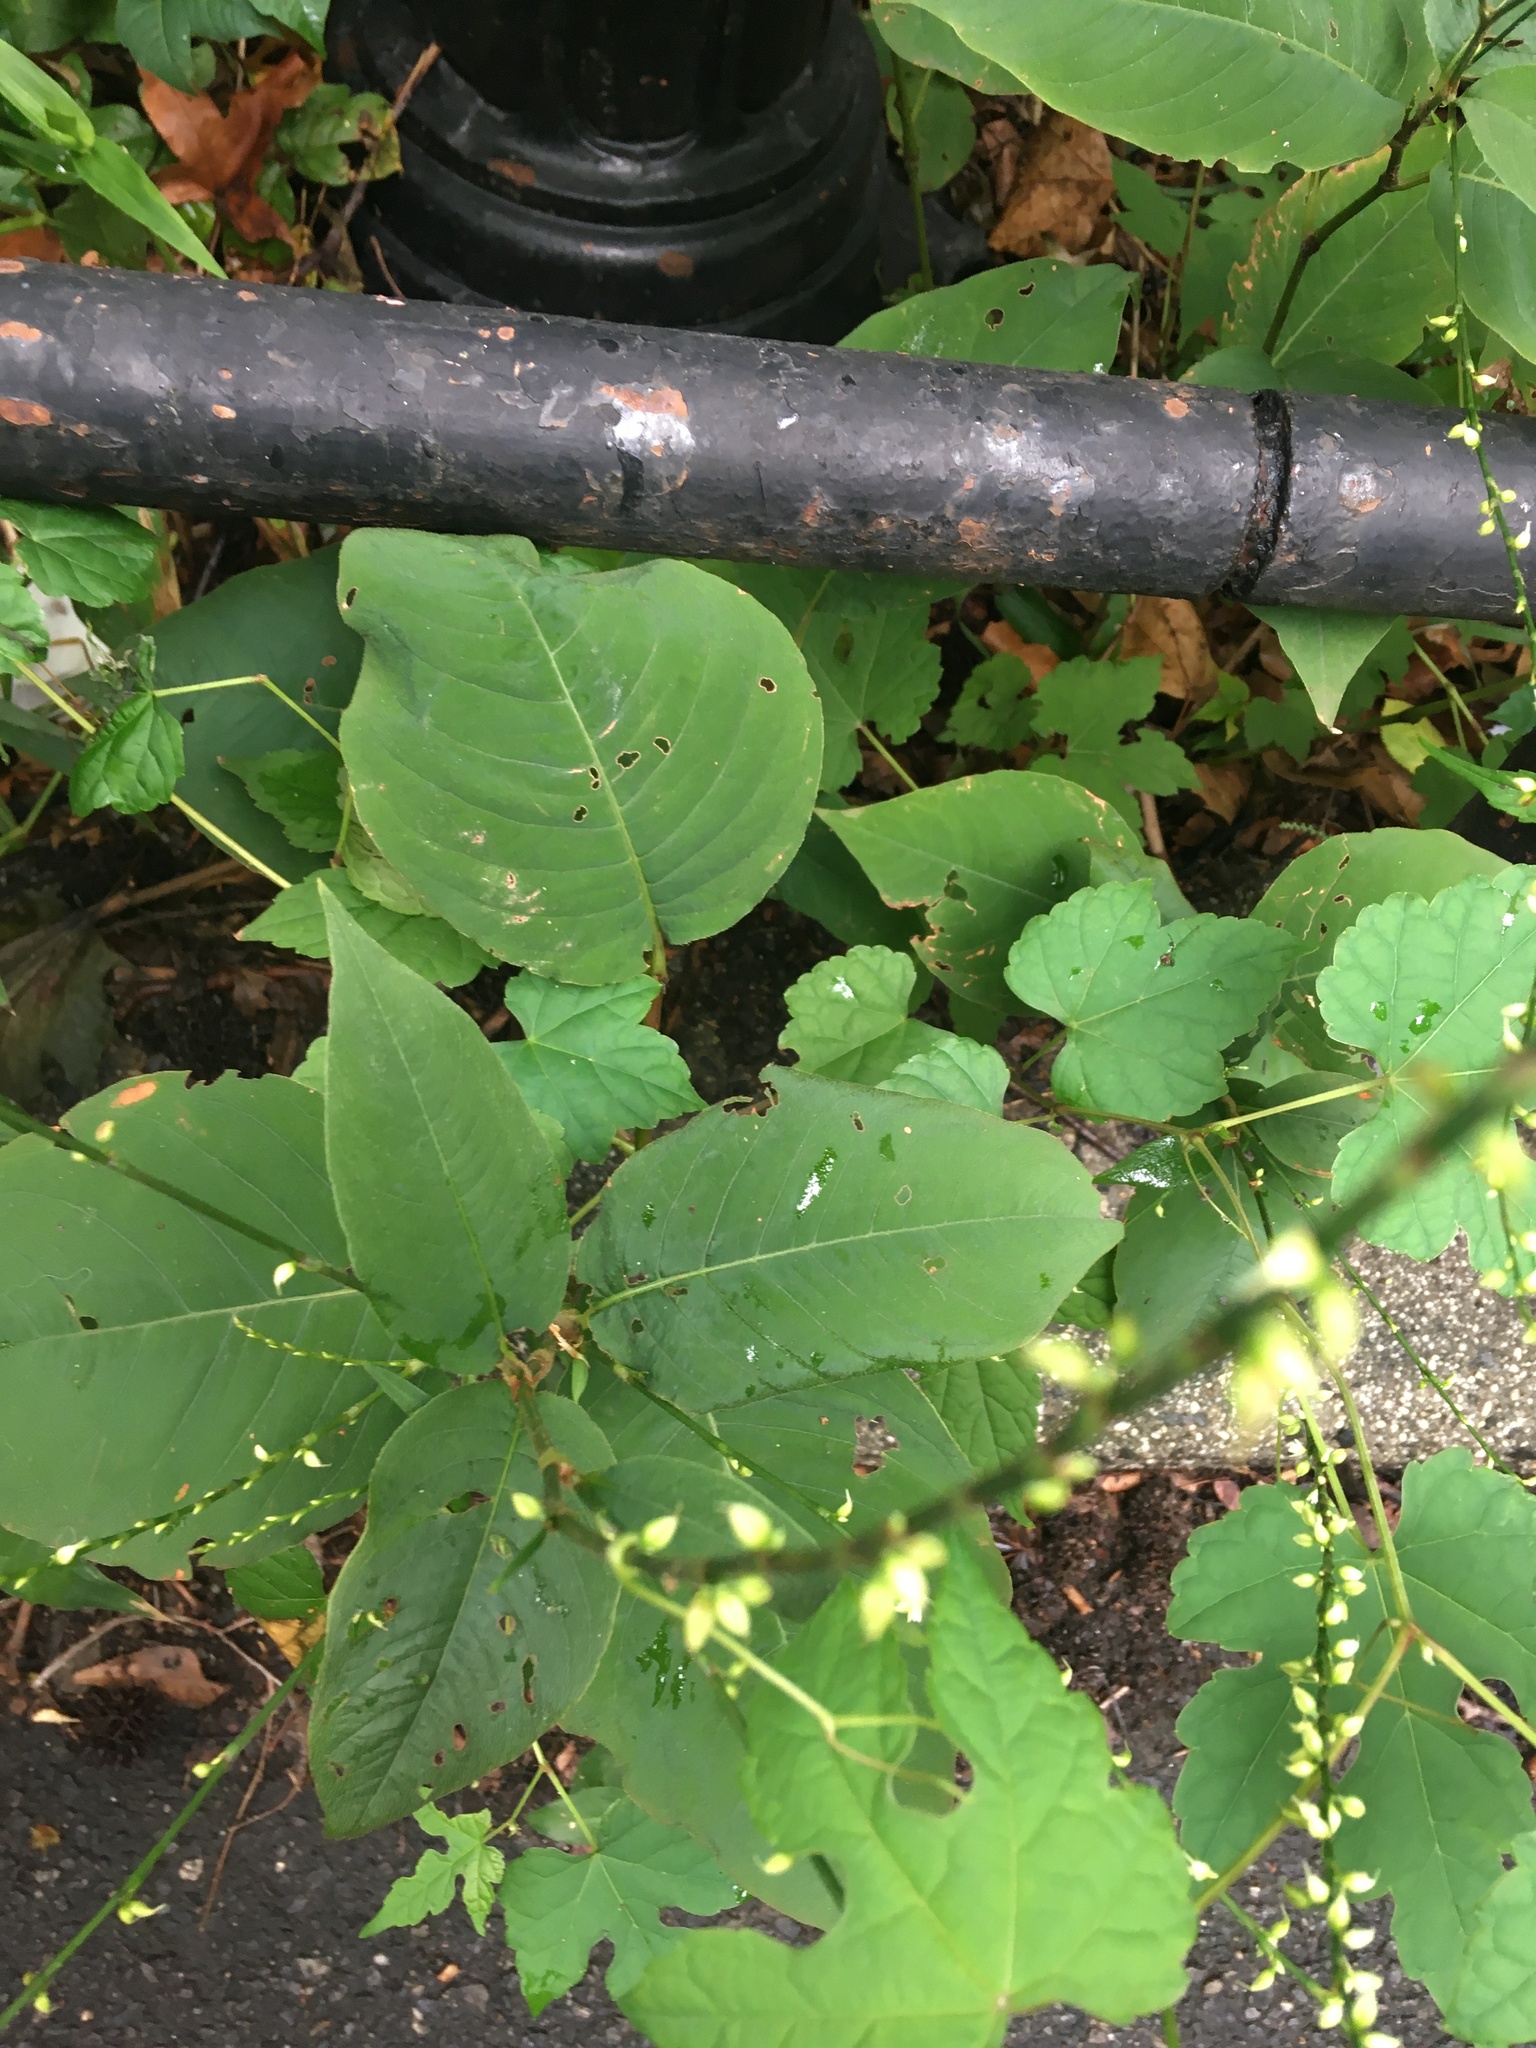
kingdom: Plantae
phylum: Tracheophyta
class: Magnoliopsida
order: Caryophyllales
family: Polygonaceae
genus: Persicaria
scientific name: Persicaria virginiana
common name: Jumpseed
